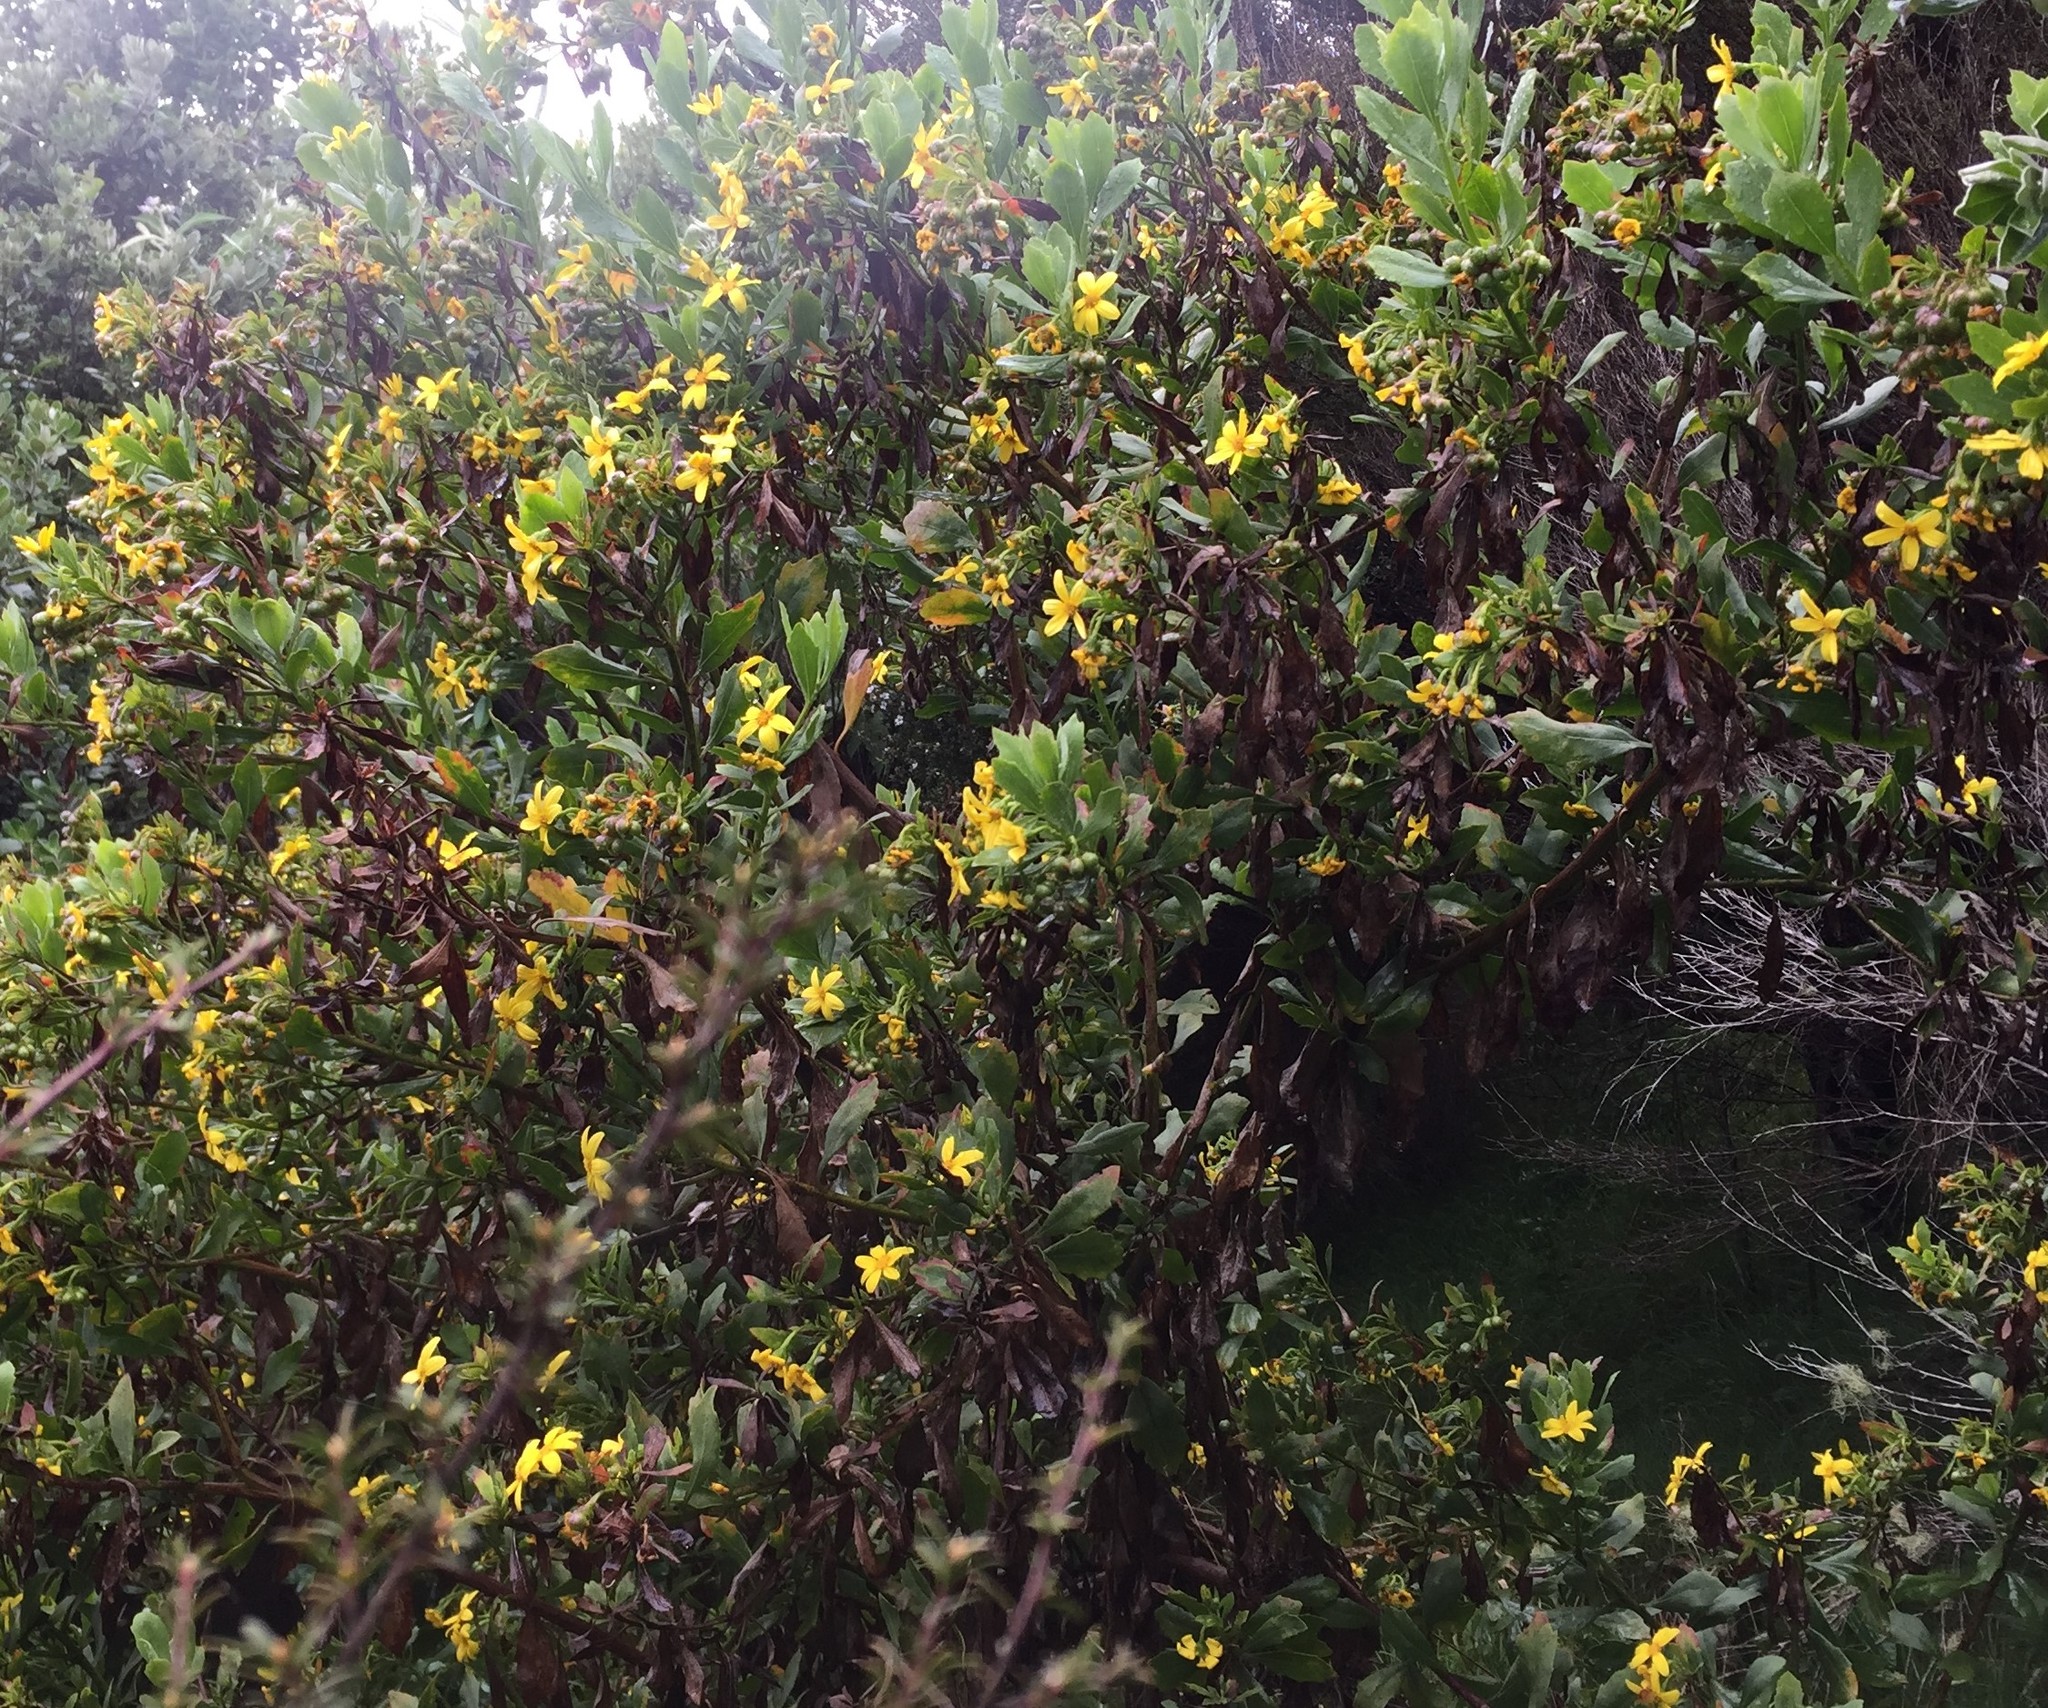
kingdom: Plantae
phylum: Tracheophyta
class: Magnoliopsida
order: Asterales
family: Asteraceae
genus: Osteospermum
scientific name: Osteospermum moniliferum
